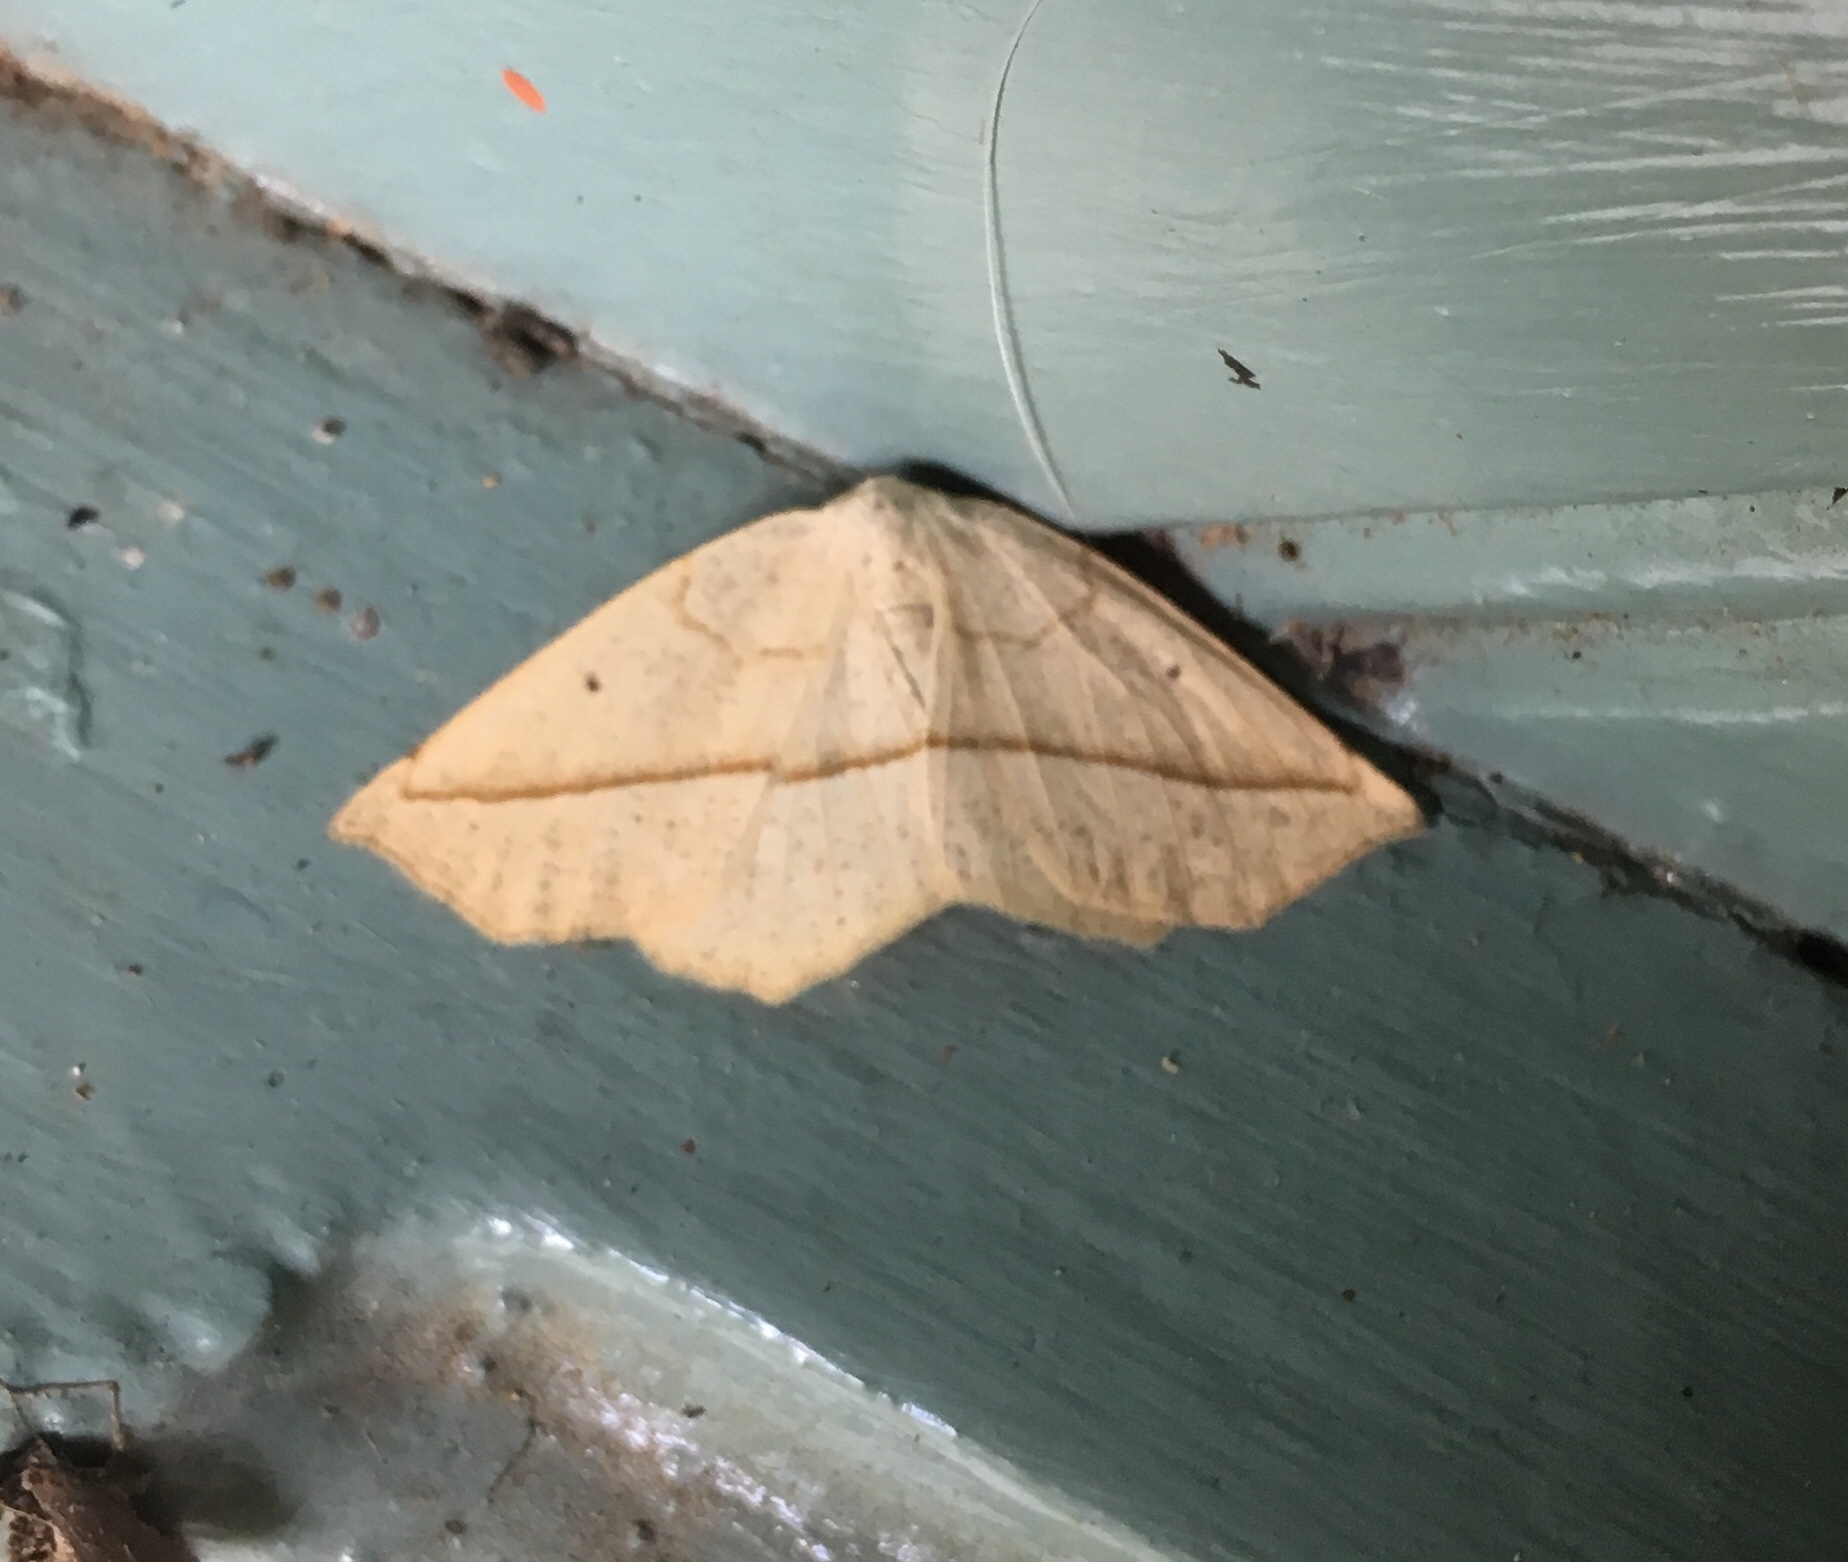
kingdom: Animalia
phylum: Arthropoda
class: Insecta
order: Lepidoptera
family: Geometridae
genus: Eusarca
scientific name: Eusarca confusaria
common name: Confused eusarca
